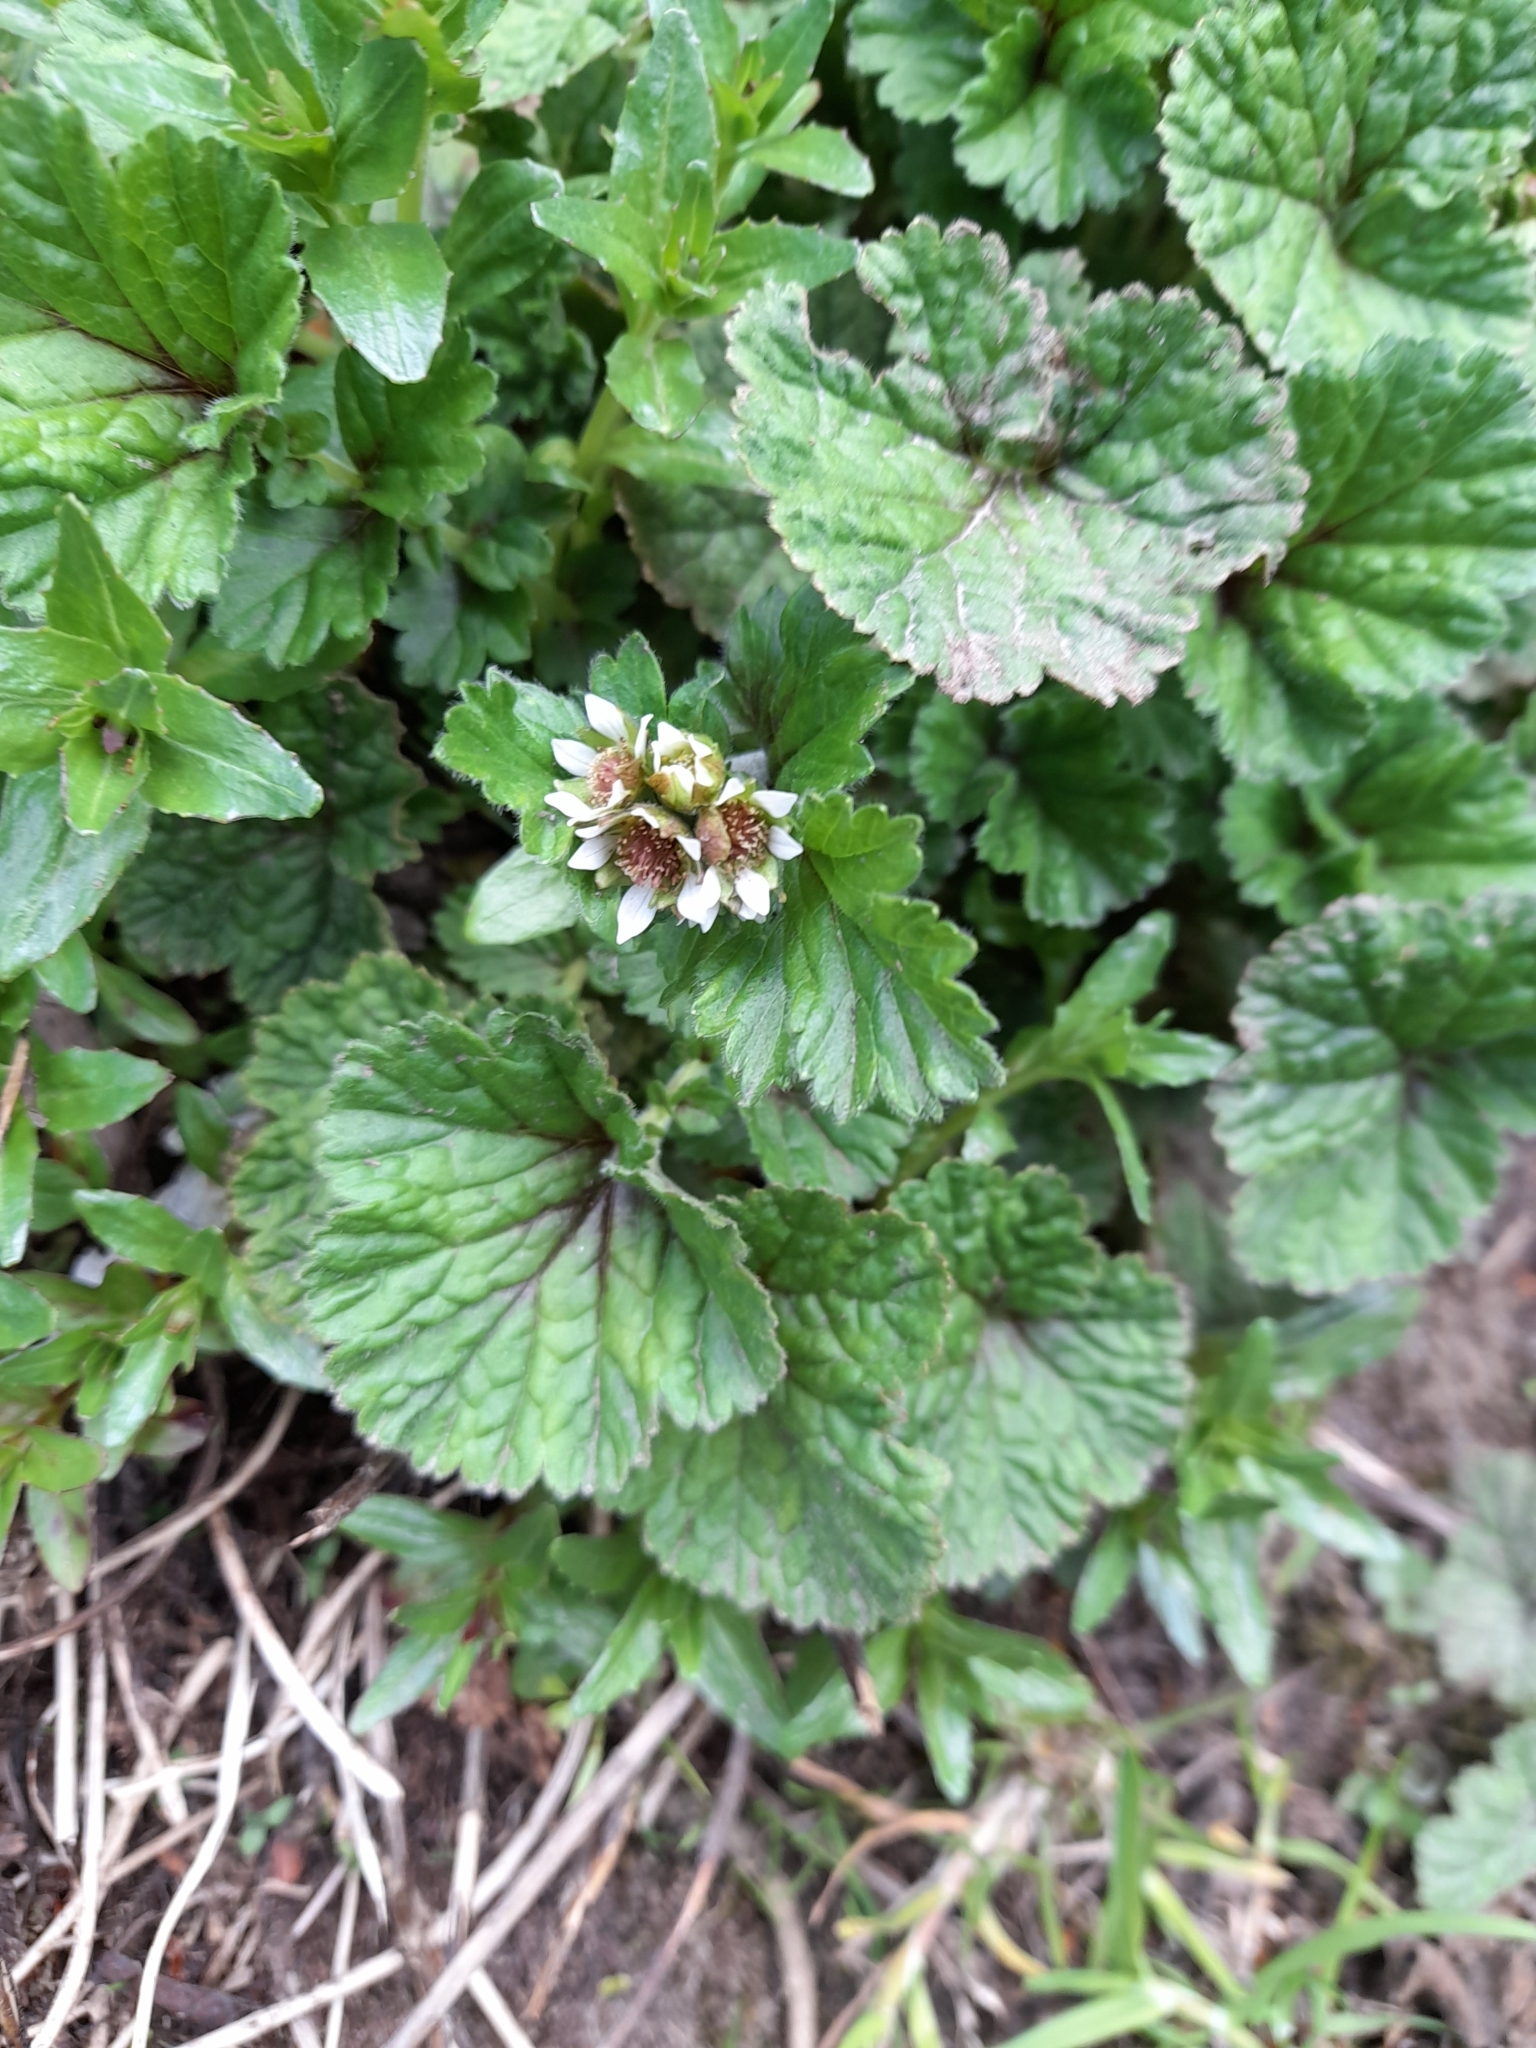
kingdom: Plantae
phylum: Tracheophyta
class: Magnoliopsida
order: Rosales
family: Rosaceae
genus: Geum
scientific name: Geum involucratum
